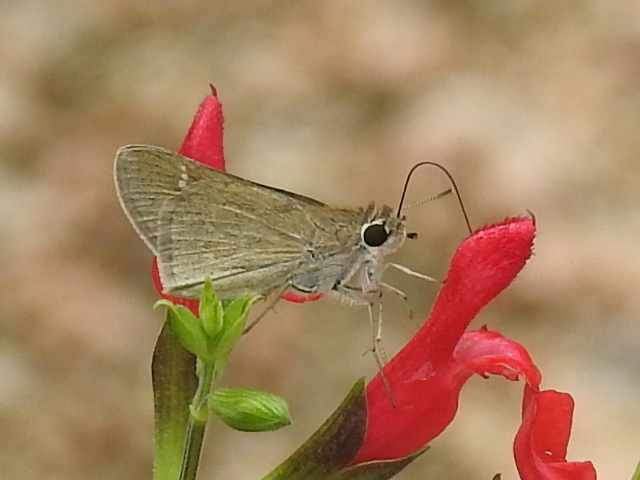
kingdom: Animalia
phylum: Arthropoda
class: Insecta
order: Lepidoptera
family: Hesperiidae
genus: Lerodea
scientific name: Lerodea eufala
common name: Eufala skipper
